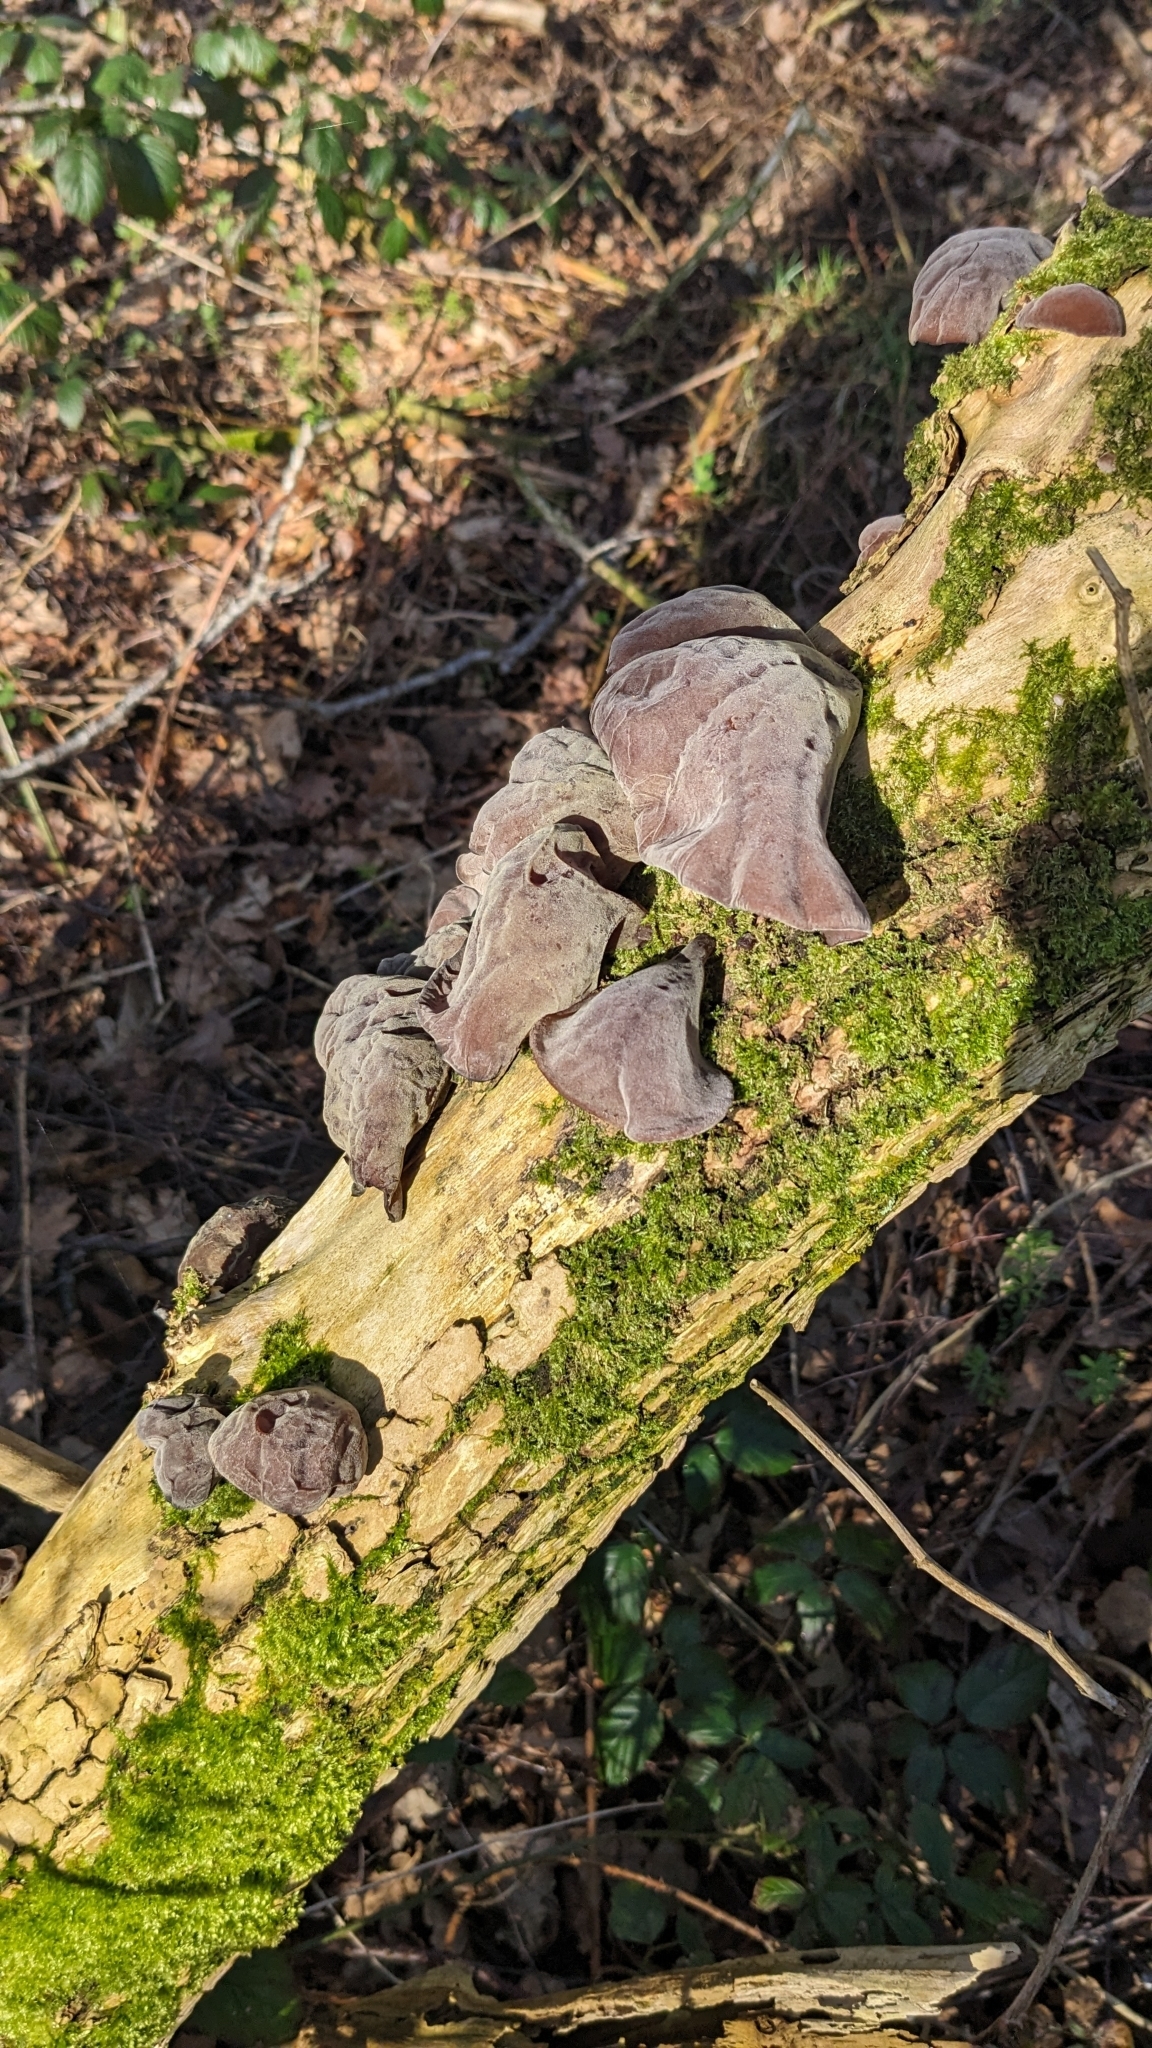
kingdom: Fungi
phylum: Basidiomycota
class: Agaricomycetes
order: Auriculariales
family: Auriculariaceae
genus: Auricularia
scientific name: Auricularia auricula-judae
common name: Jelly ear
